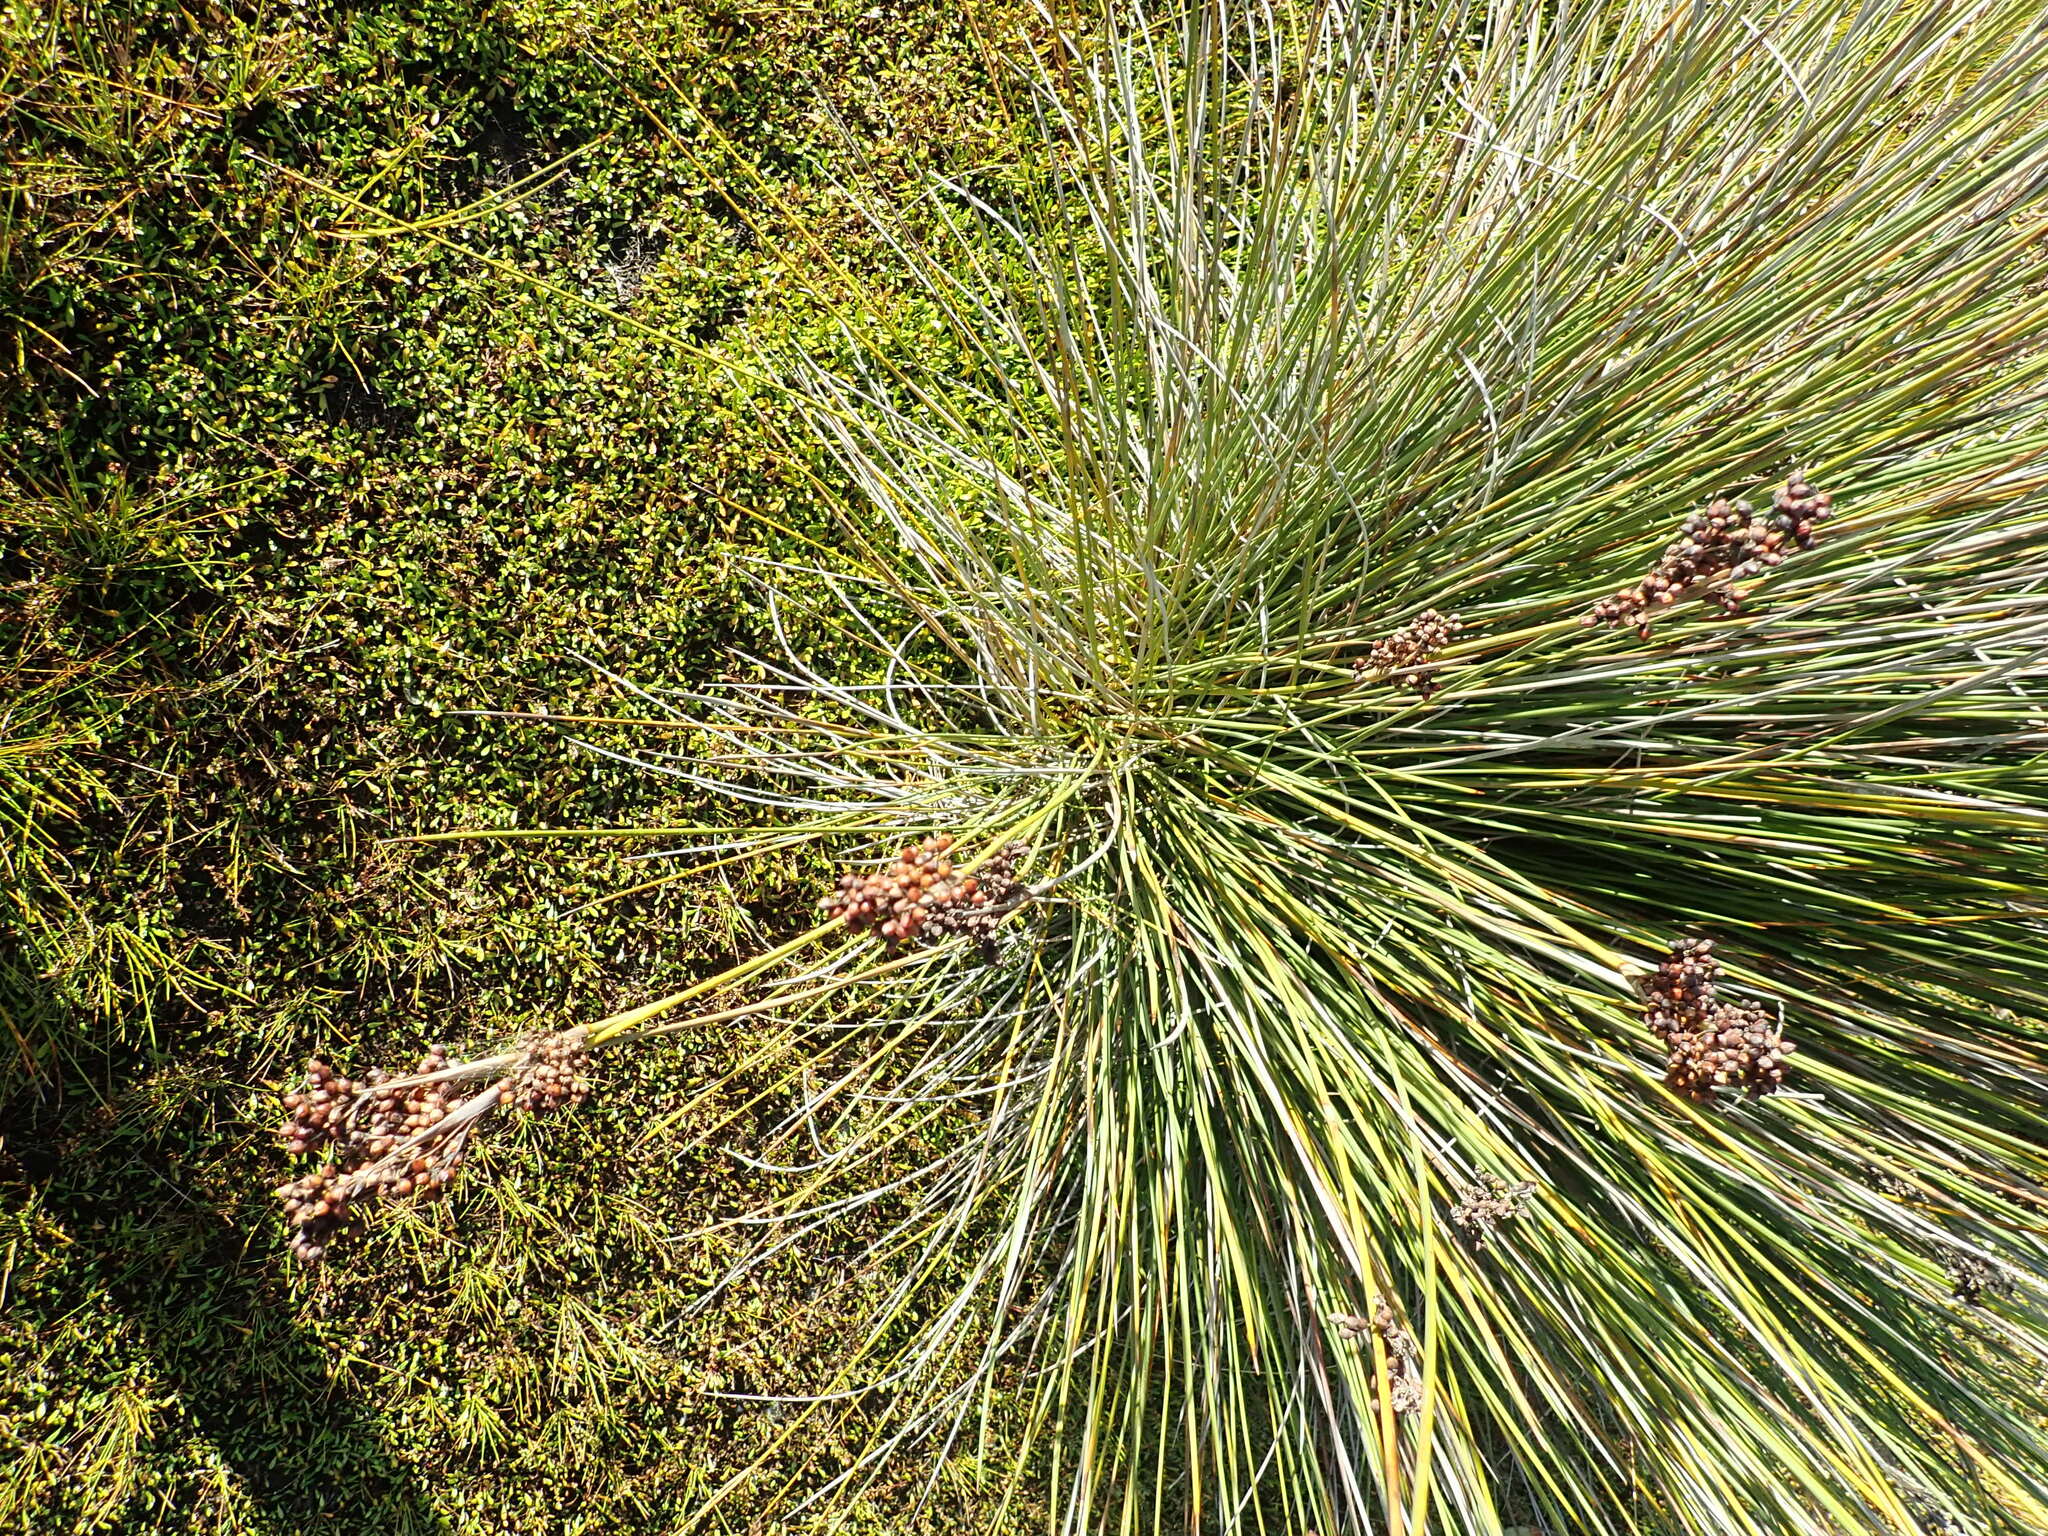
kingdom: Plantae
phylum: Tracheophyta
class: Liliopsida
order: Poales
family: Juncaceae
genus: Juncus
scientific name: Juncus acutus
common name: Sharp rush
